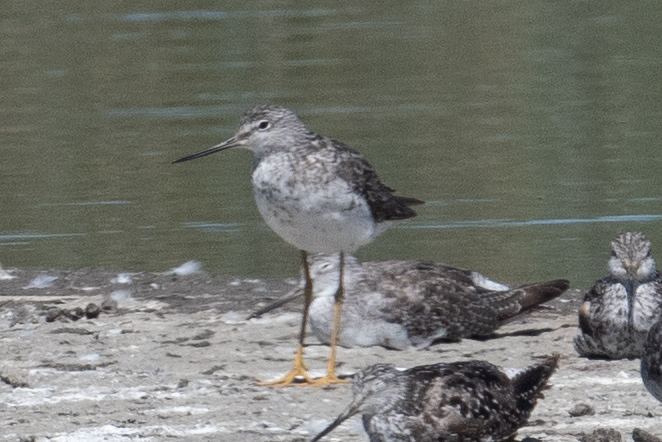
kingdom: Animalia
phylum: Chordata
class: Aves
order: Charadriiformes
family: Scolopacidae
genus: Tringa
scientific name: Tringa melanoleuca
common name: Greater yellowlegs
